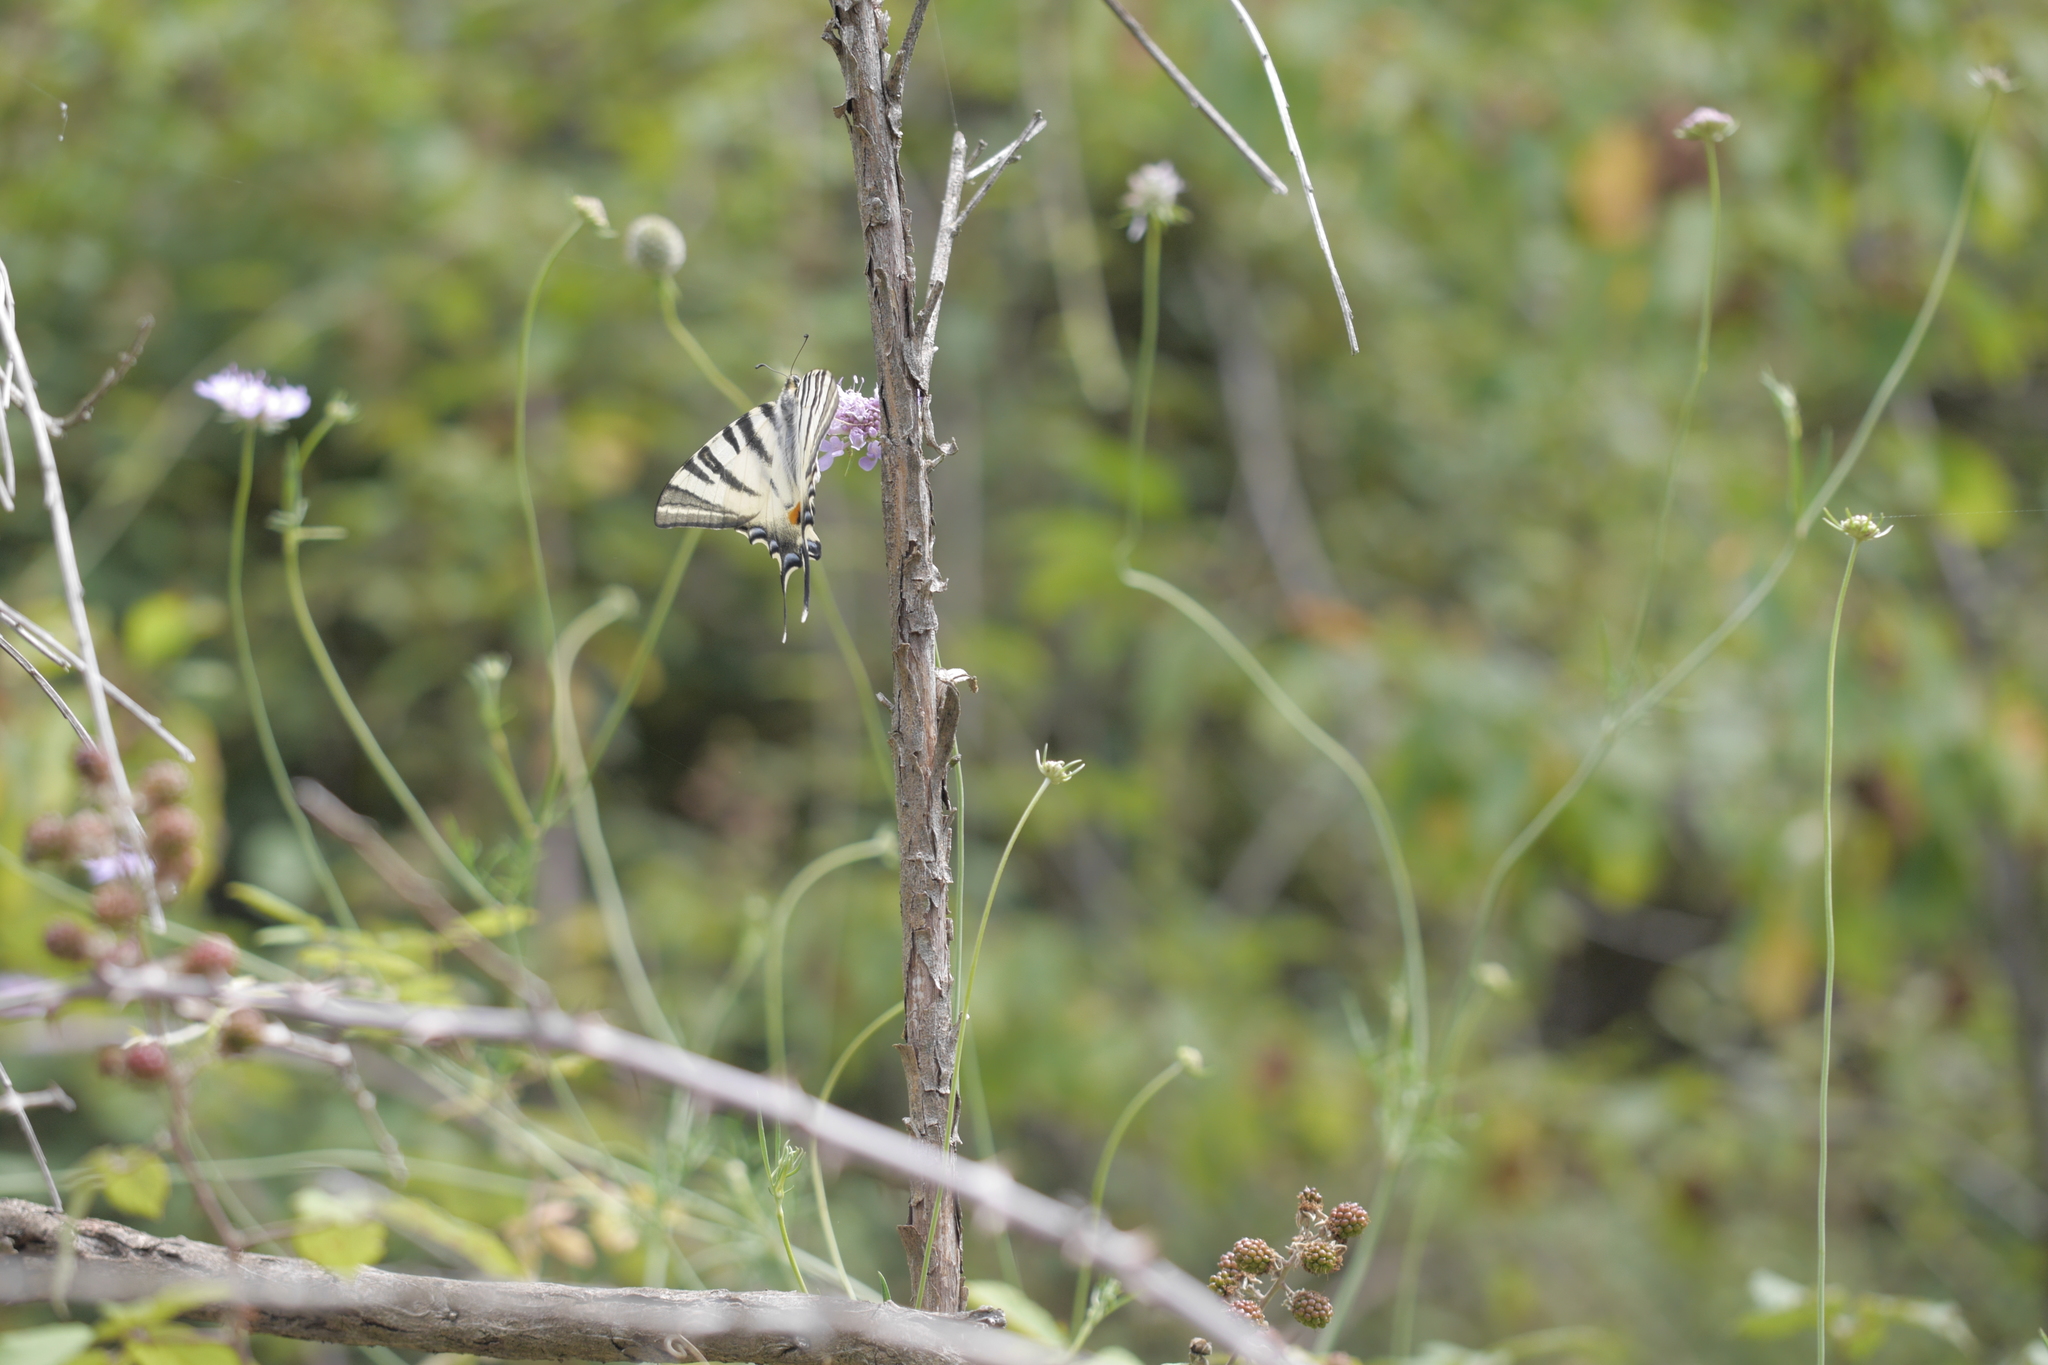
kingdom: Animalia
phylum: Arthropoda
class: Insecta
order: Lepidoptera
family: Papilionidae
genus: Iphiclides
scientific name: Iphiclides podalirius
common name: Scarce swallowtail
